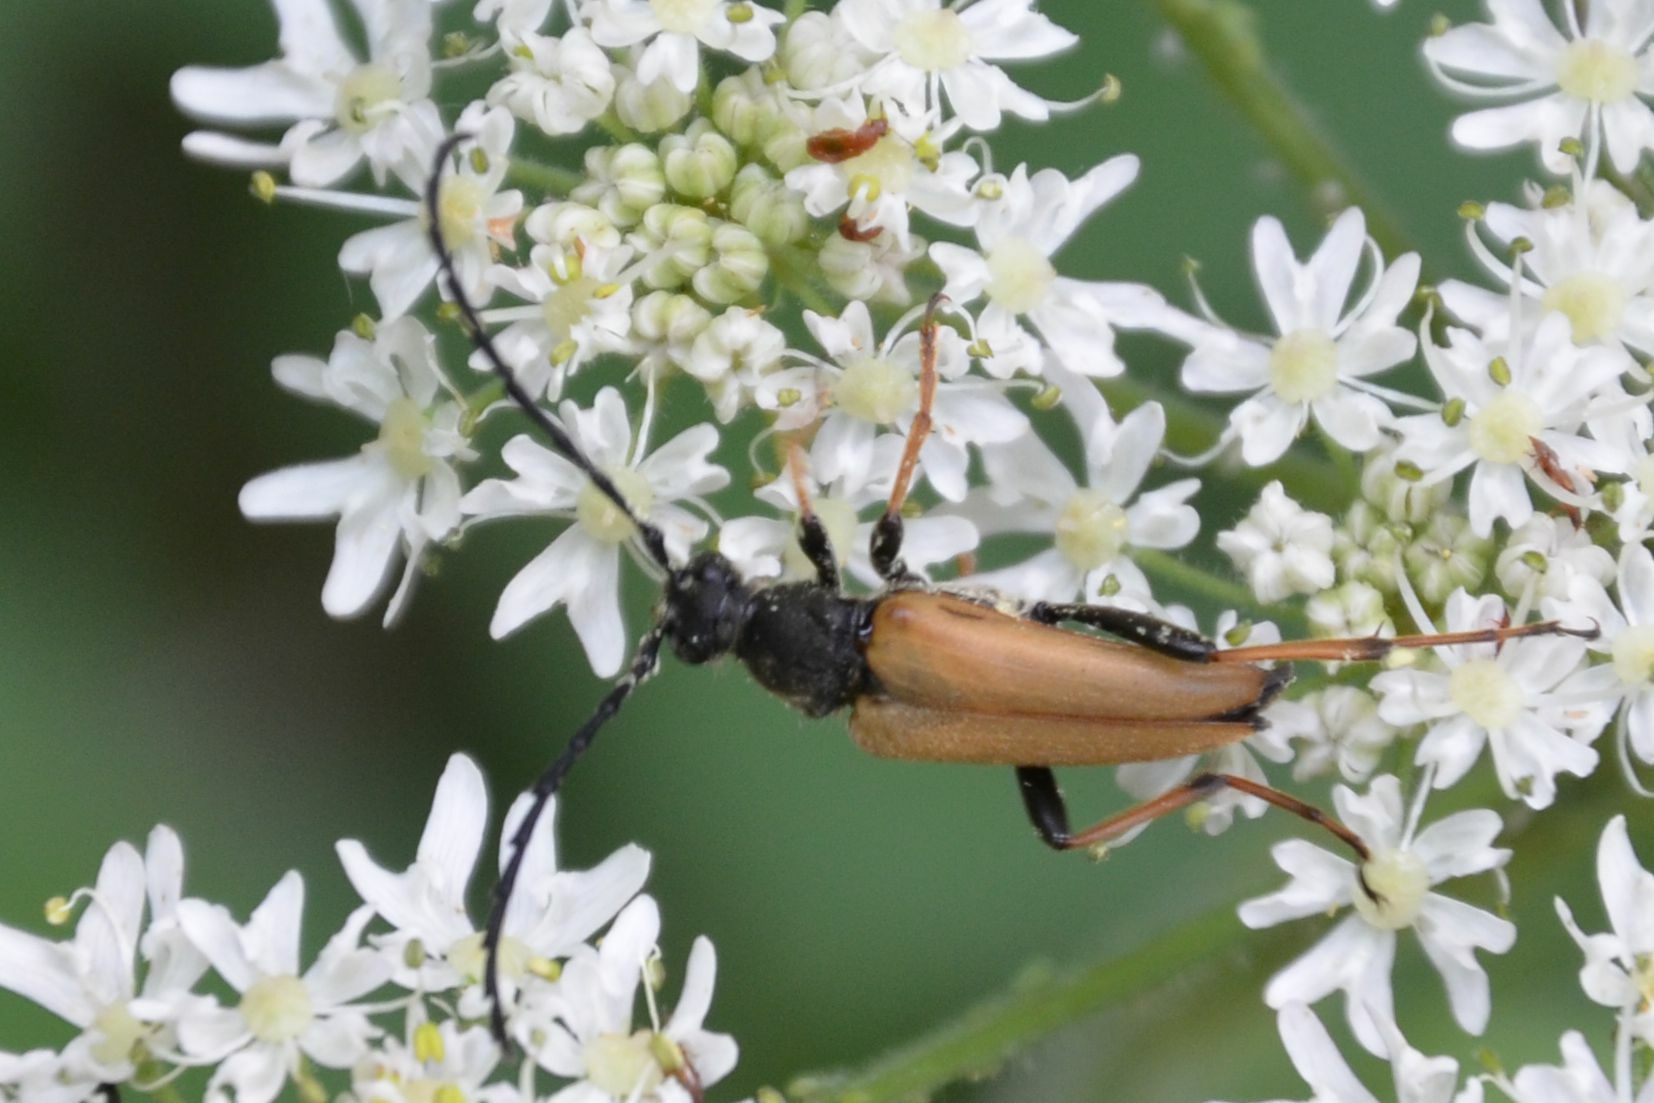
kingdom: Animalia
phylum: Arthropoda
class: Insecta
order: Coleoptera
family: Cerambycidae
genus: Stictoleptura
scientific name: Stictoleptura rubra
